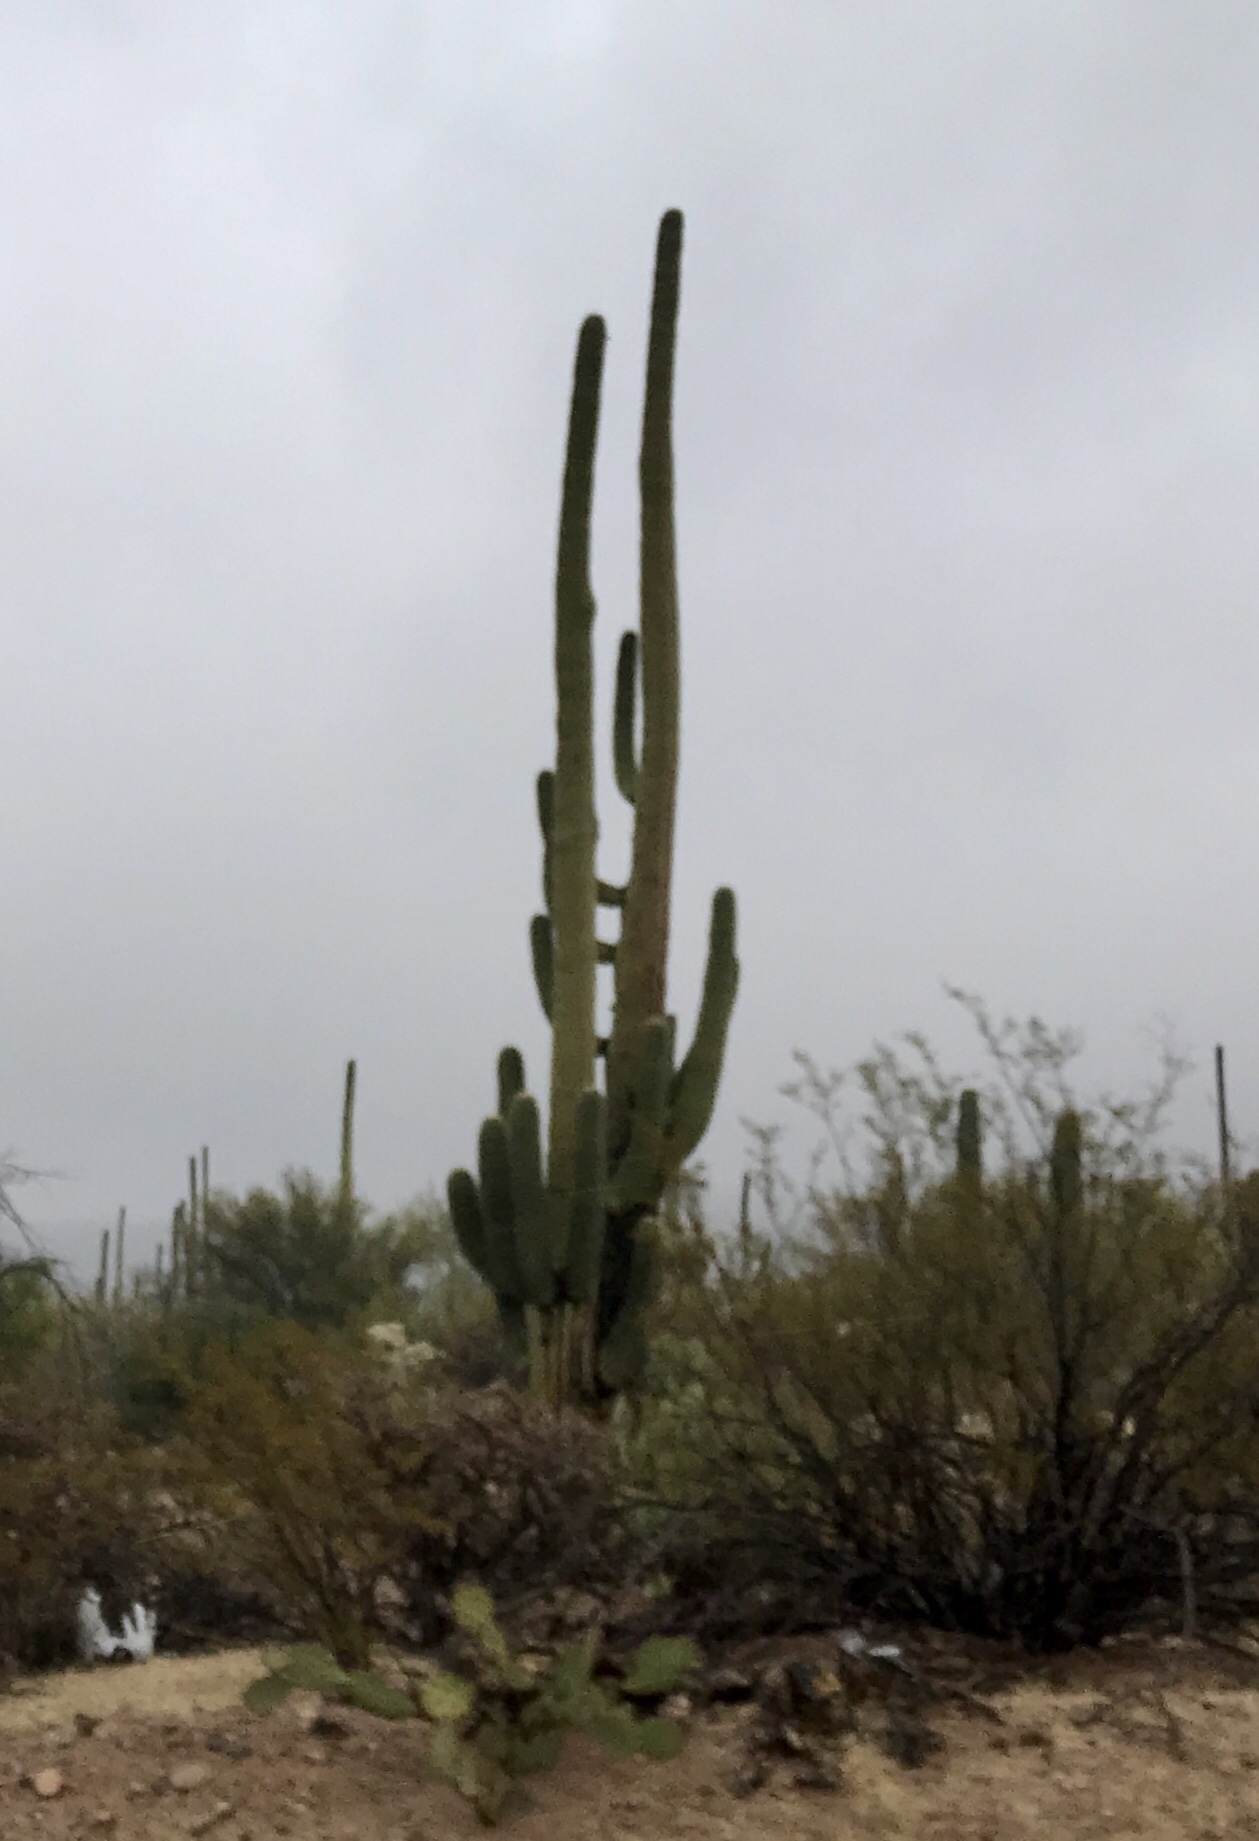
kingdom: Plantae
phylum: Tracheophyta
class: Magnoliopsida
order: Caryophyllales
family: Cactaceae
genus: Carnegiea
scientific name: Carnegiea gigantea
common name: Saguaro
